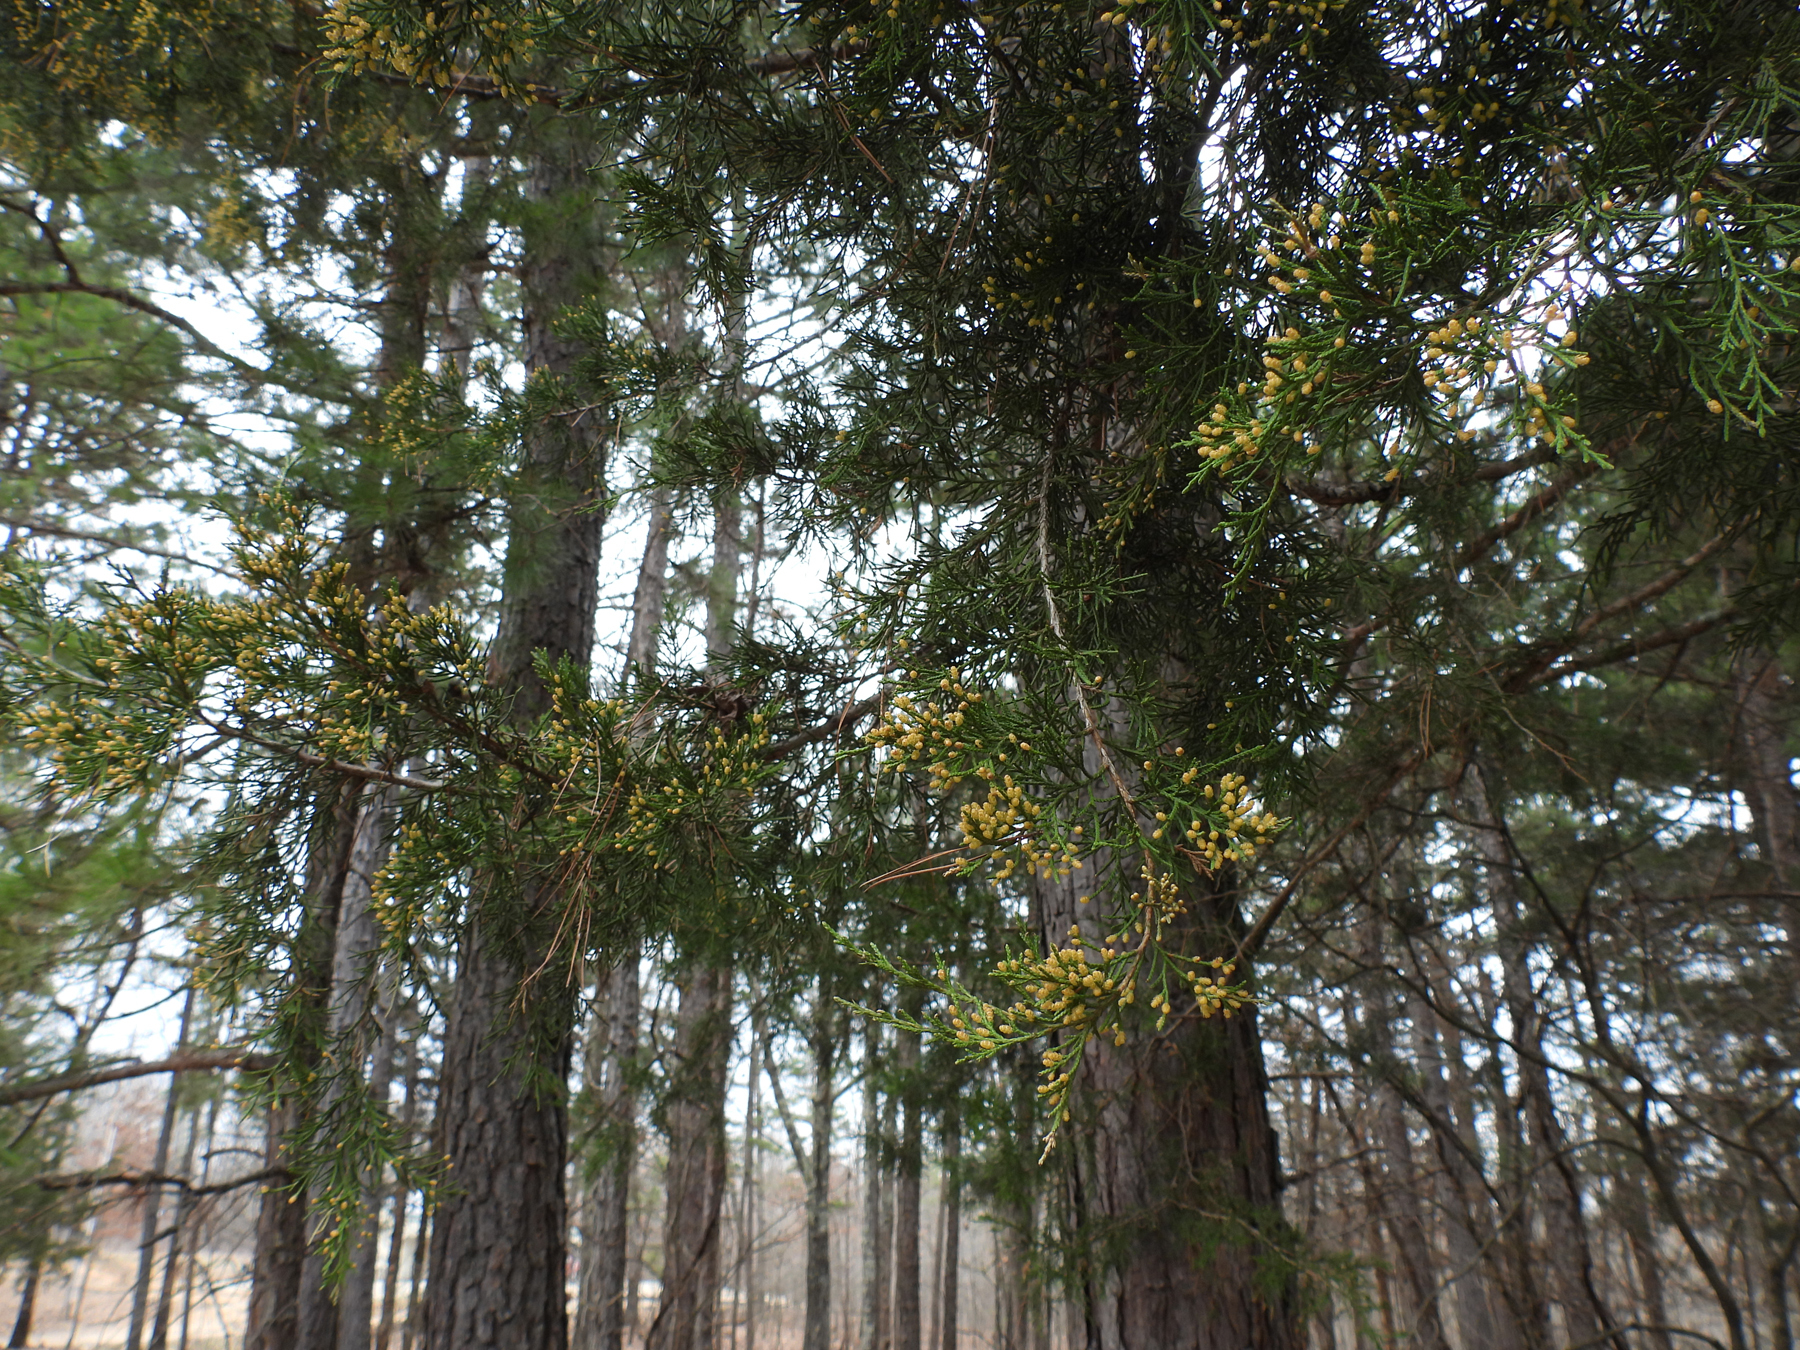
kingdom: Plantae
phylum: Tracheophyta
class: Pinopsida
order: Pinales
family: Cupressaceae
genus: Juniperus
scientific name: Juniperus virginiana
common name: Red juniper
